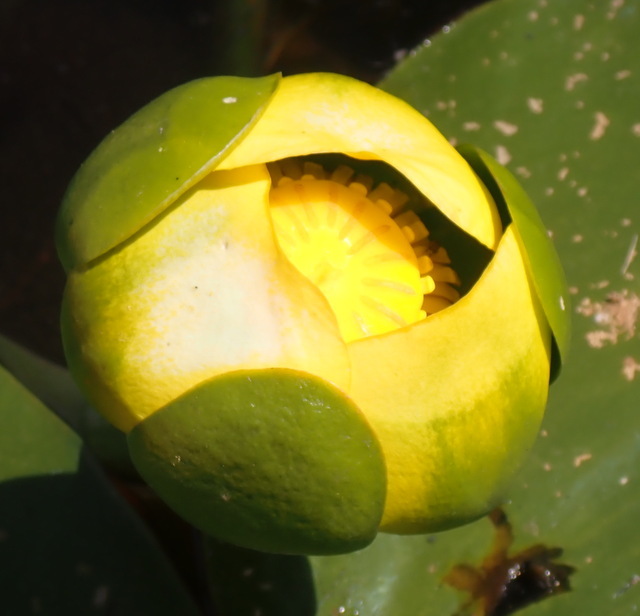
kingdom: Plantae
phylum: Tracheophyta
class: Magnoliopsida
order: Nymphaeales
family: Nymphaeaceae
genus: Nuphar
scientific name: Nuphar advena
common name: Spatter-dock
